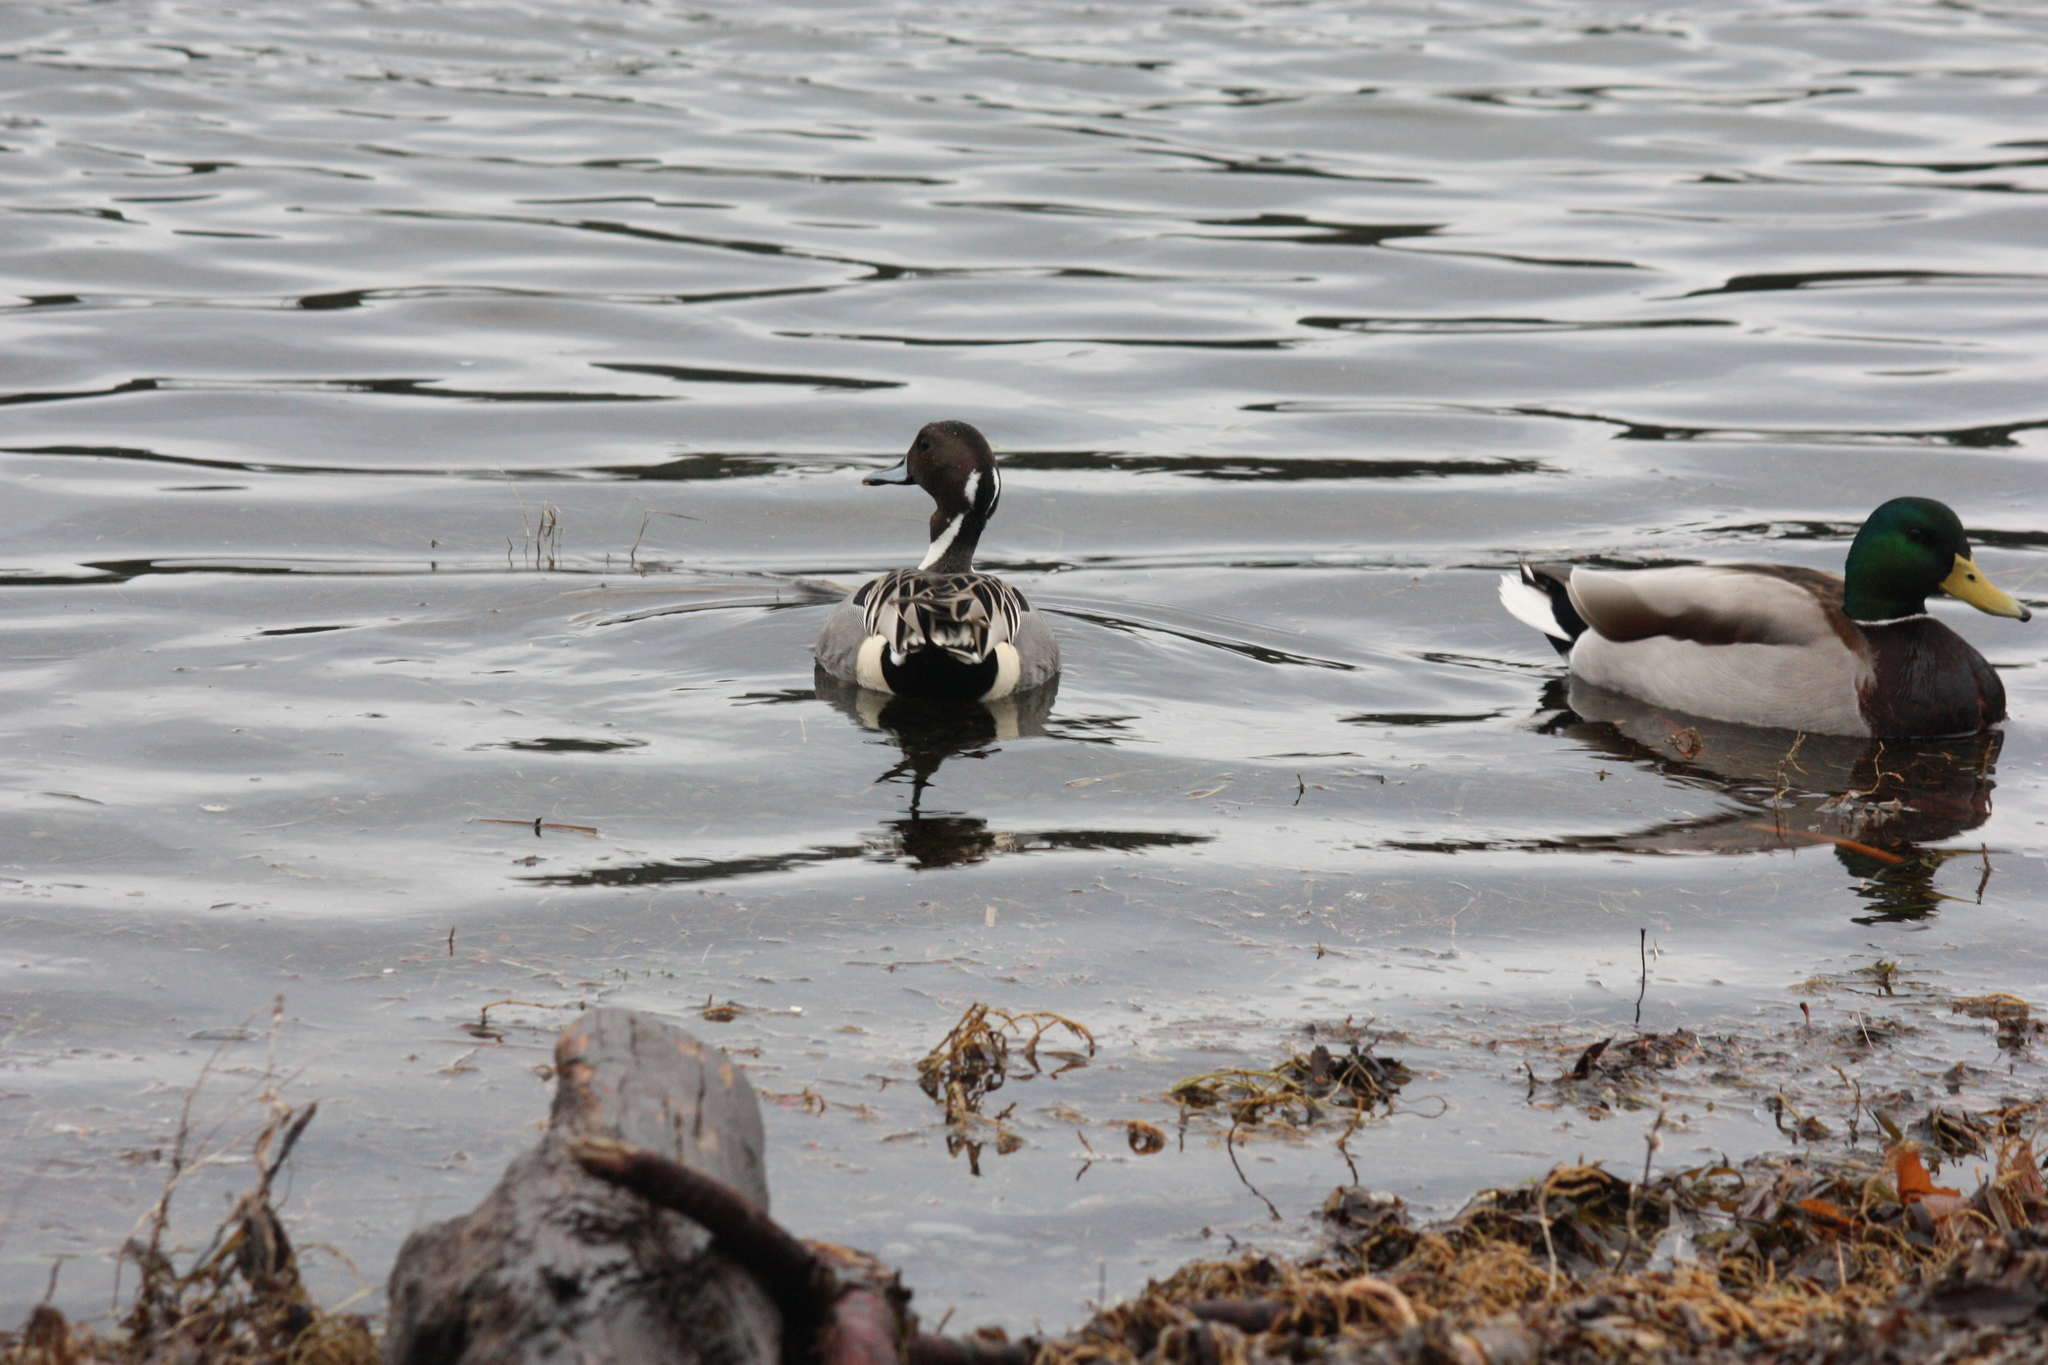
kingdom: Animalia
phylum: Chordata
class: Aves
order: Anseriformes
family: Anatidae
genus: Anas
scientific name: Anas acuta
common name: Northern pintail
